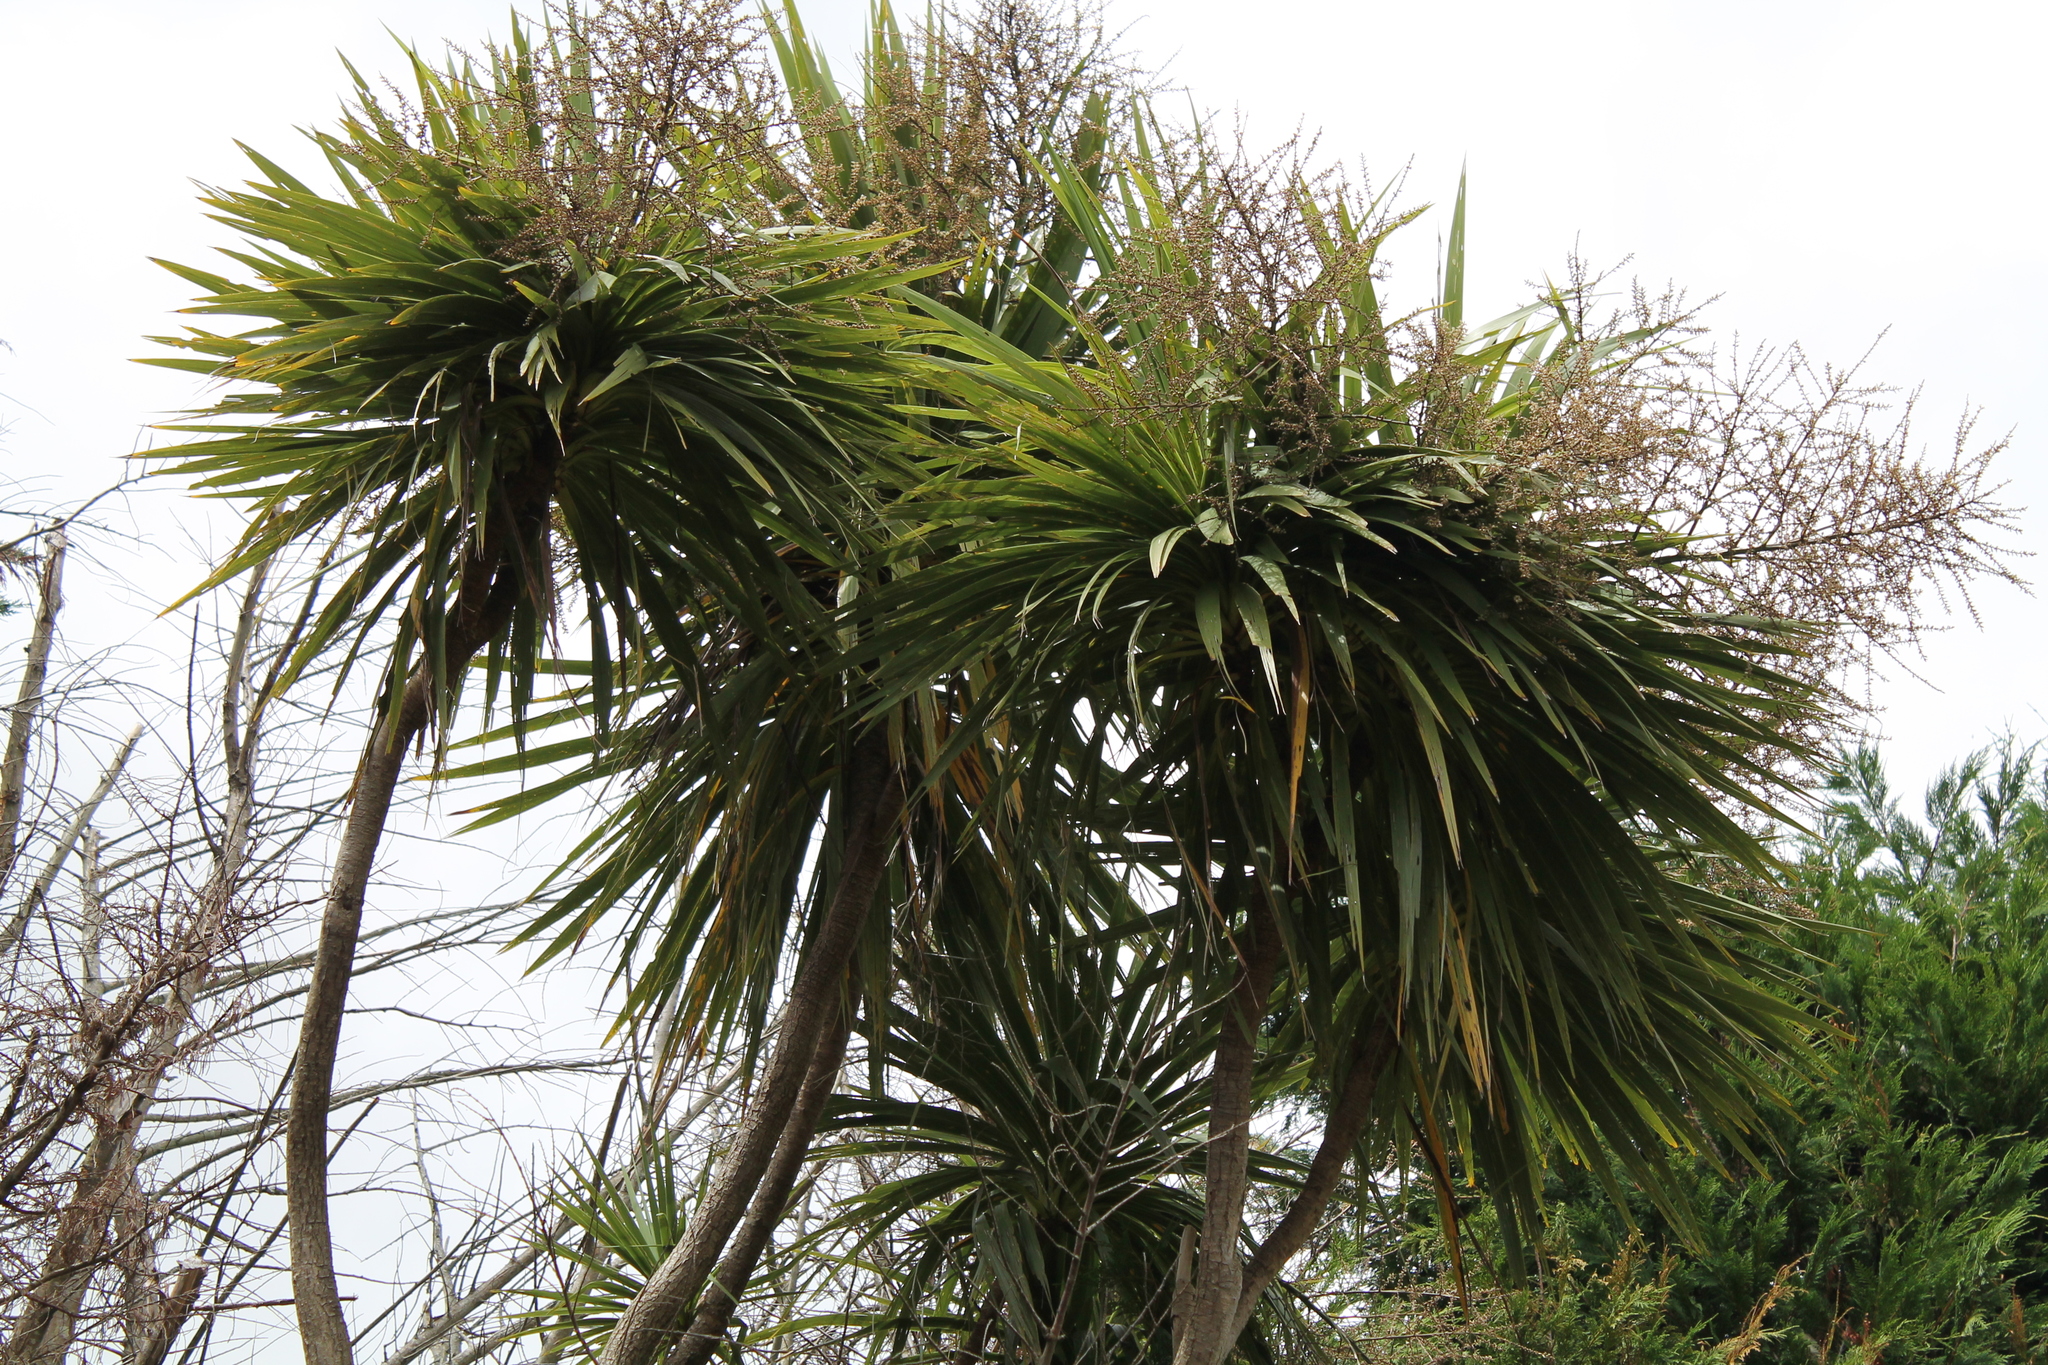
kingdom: Plantae
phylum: Tracheophyta
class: Liliopsida
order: Asparagales
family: Asparagaceae
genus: Cordyline
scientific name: Cordyline australis
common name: Cabbage-palm
